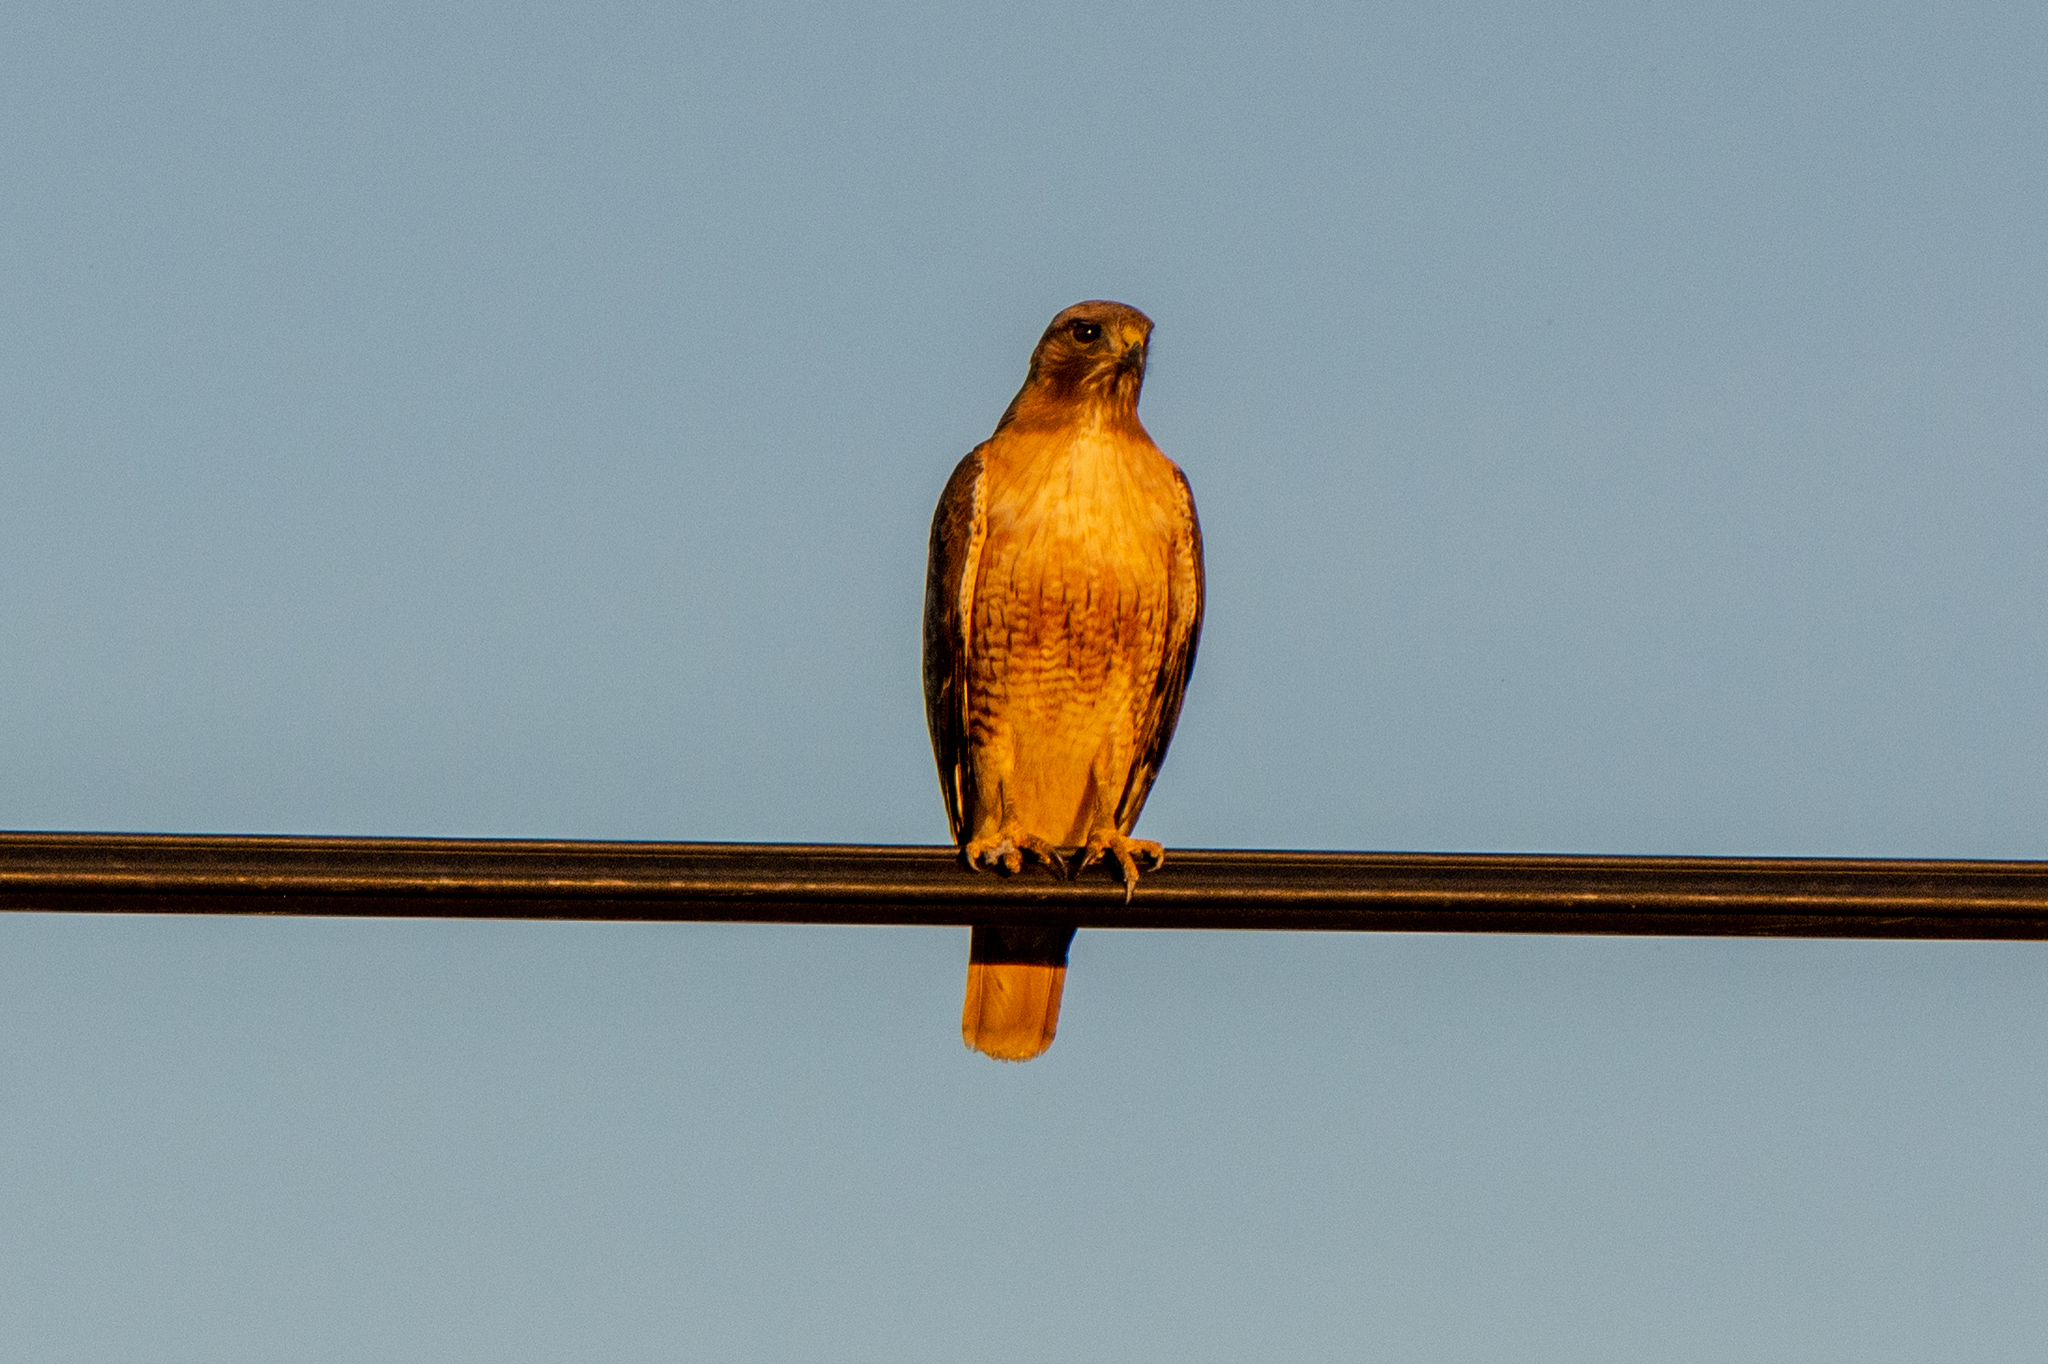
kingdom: Animalia
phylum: Chordata
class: Aves
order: Accipitriformes
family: Accipitridae
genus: Buteo
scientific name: Buteo jamaicensis
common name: Red-tailed hawk
